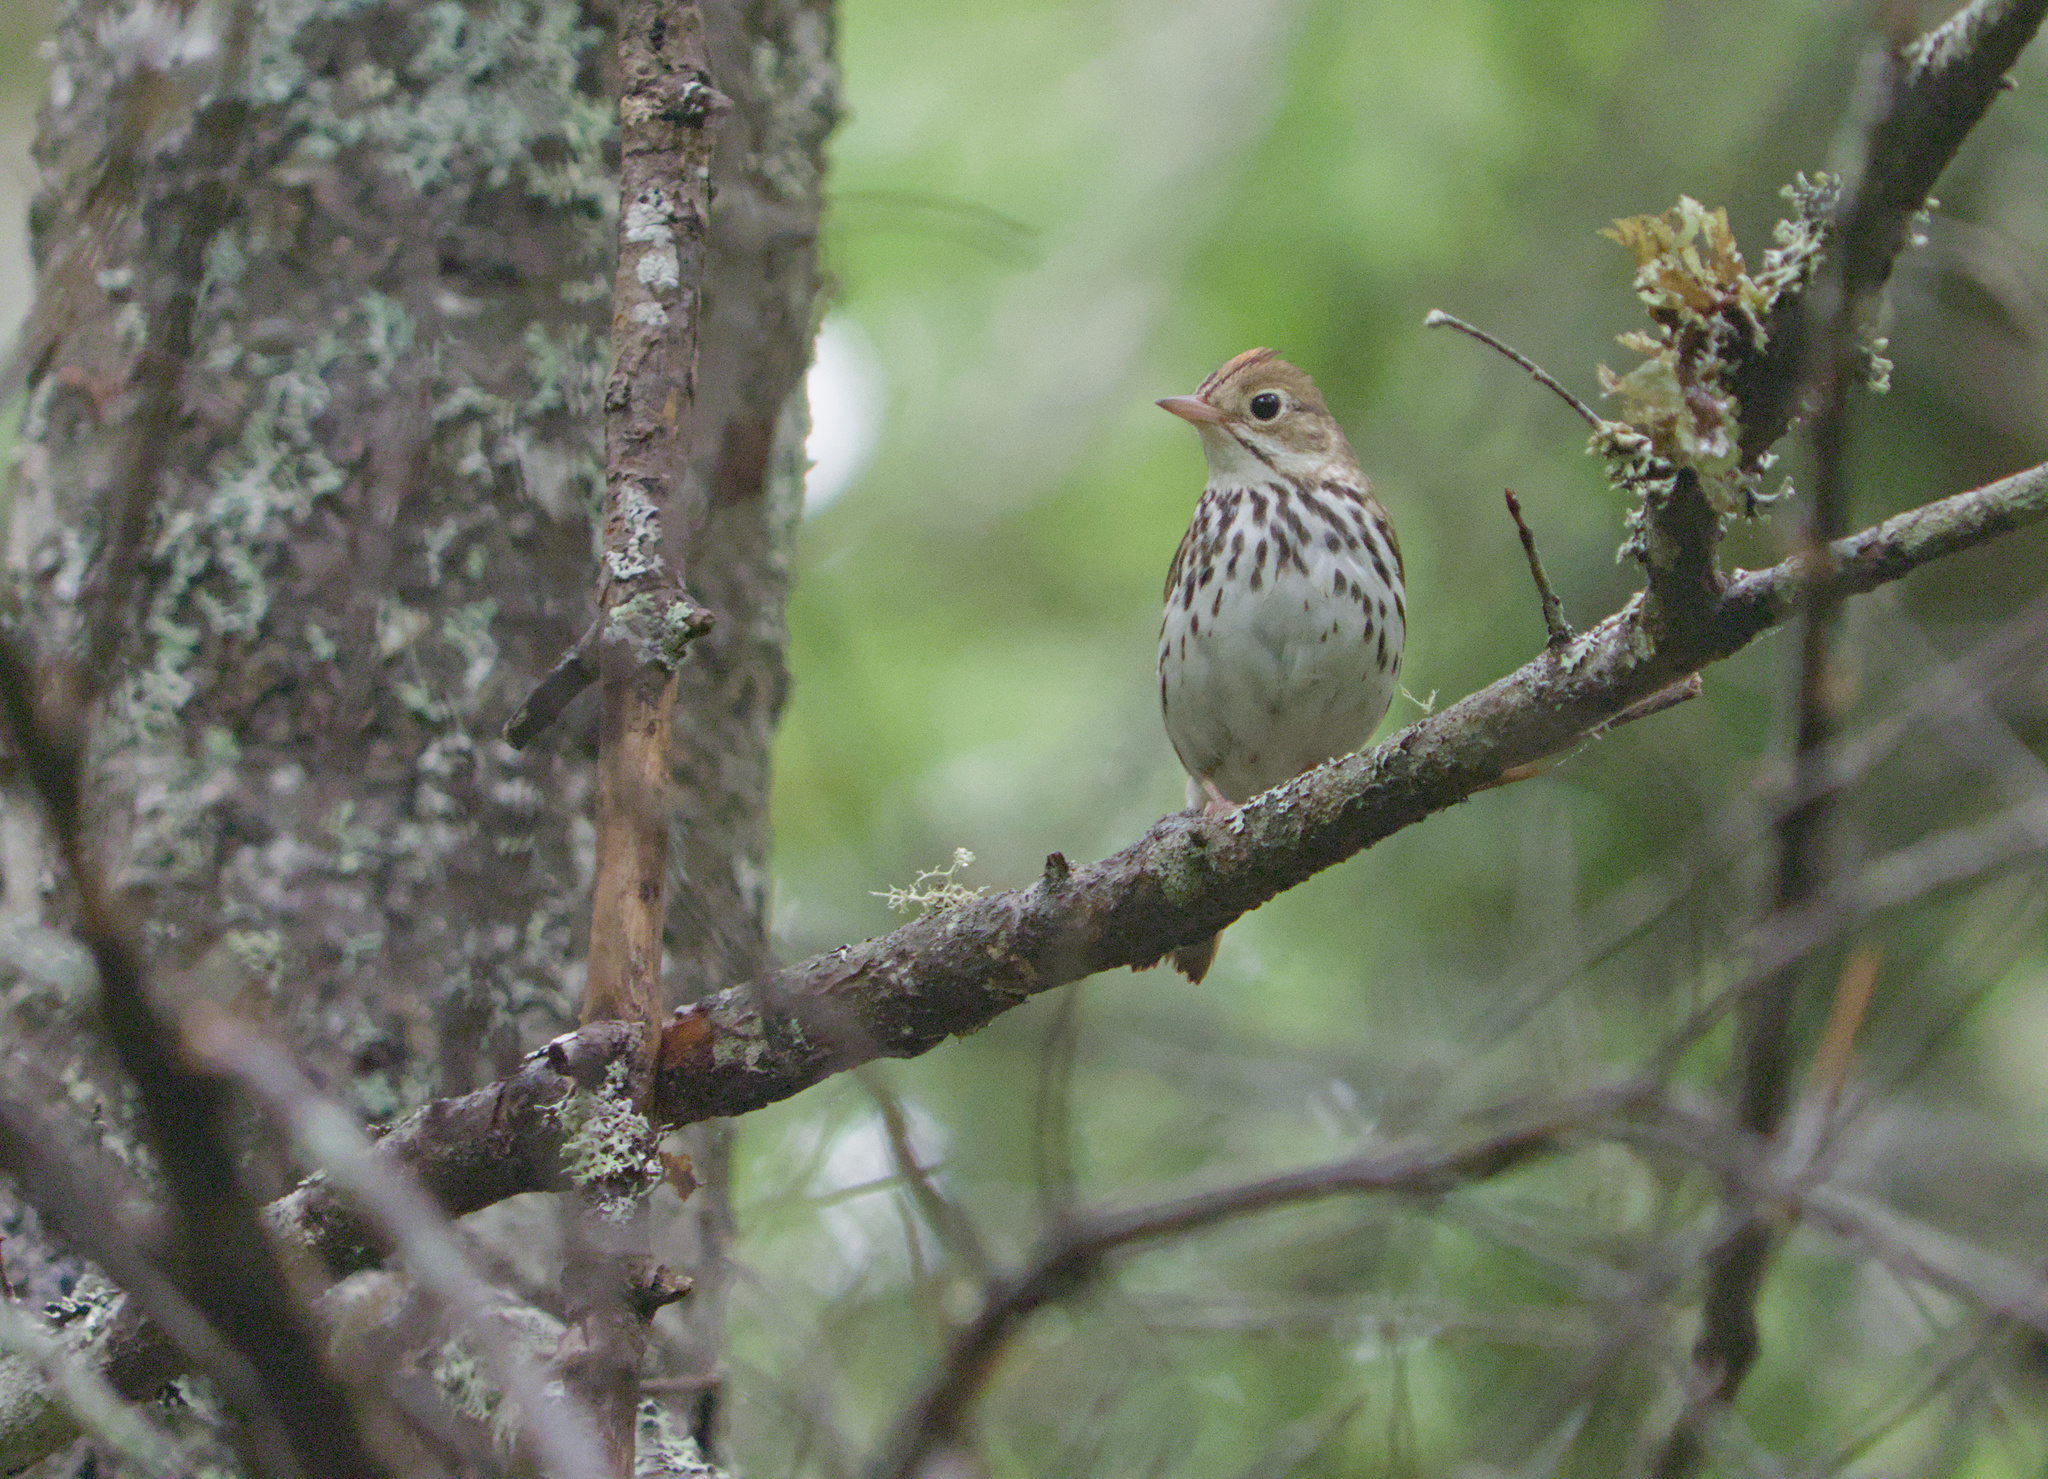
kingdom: Animalia
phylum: Chordata
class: Aves
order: Passeriformes
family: Parulidae
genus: Seiurus
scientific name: Seiurus aurocapilla
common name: Ovenbird
